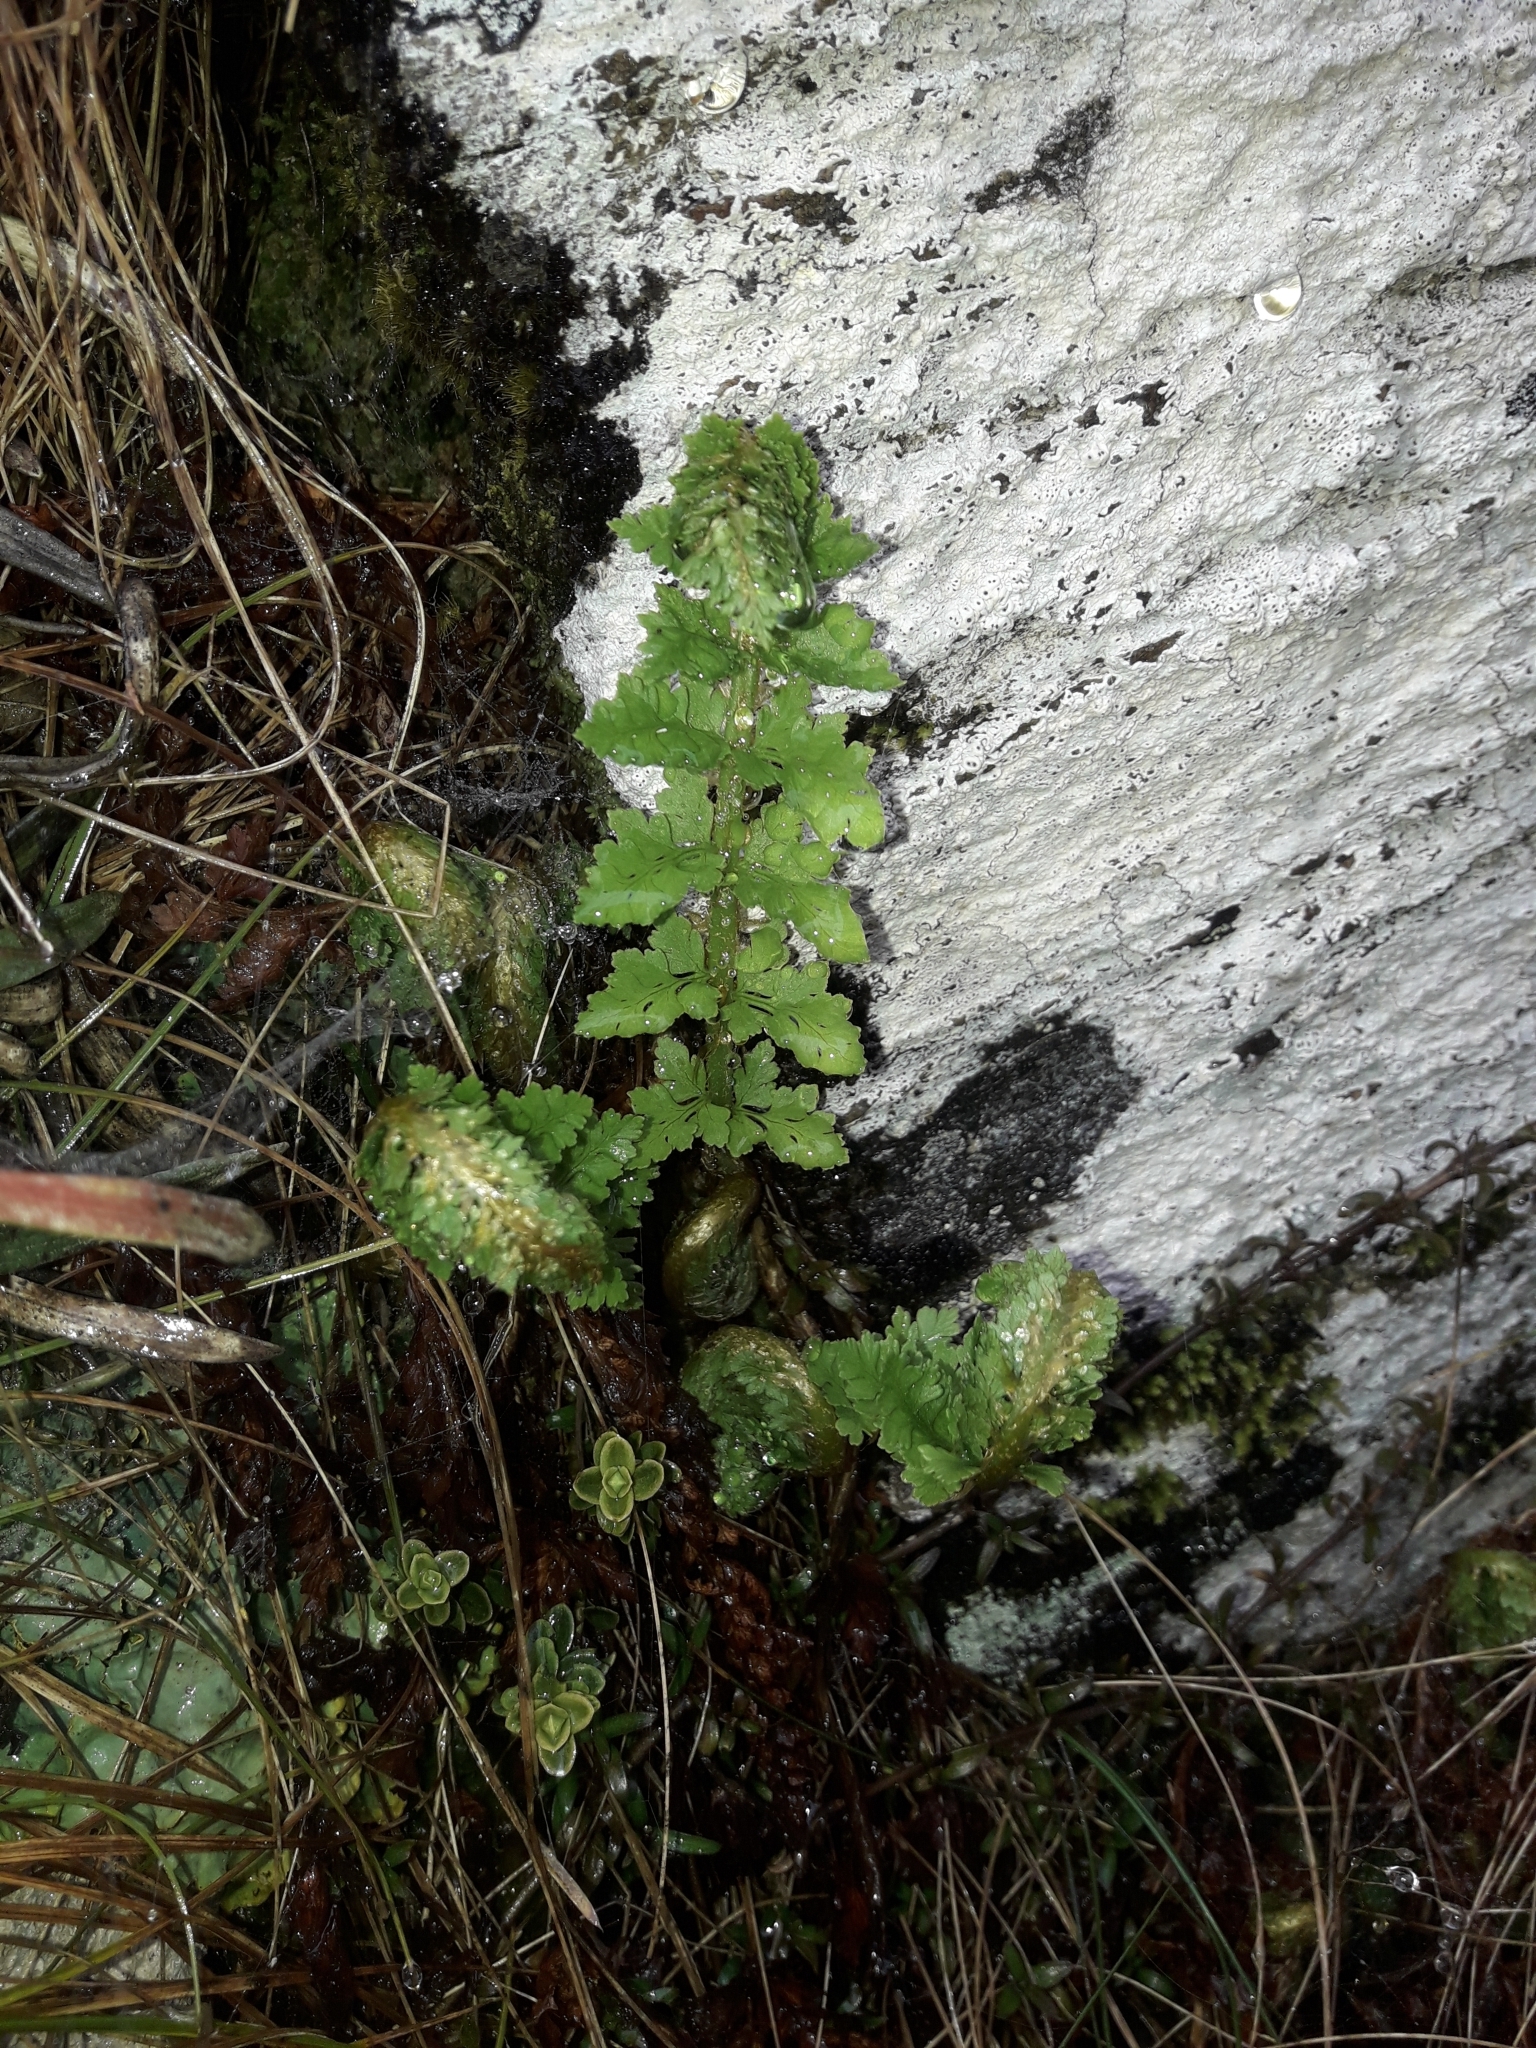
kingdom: Plantae
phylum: Tracheophyta
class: Polypodiopsida
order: Polypodiales
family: Dryopteridaceae
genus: Polystichum
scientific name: Polystichum cystostegia
